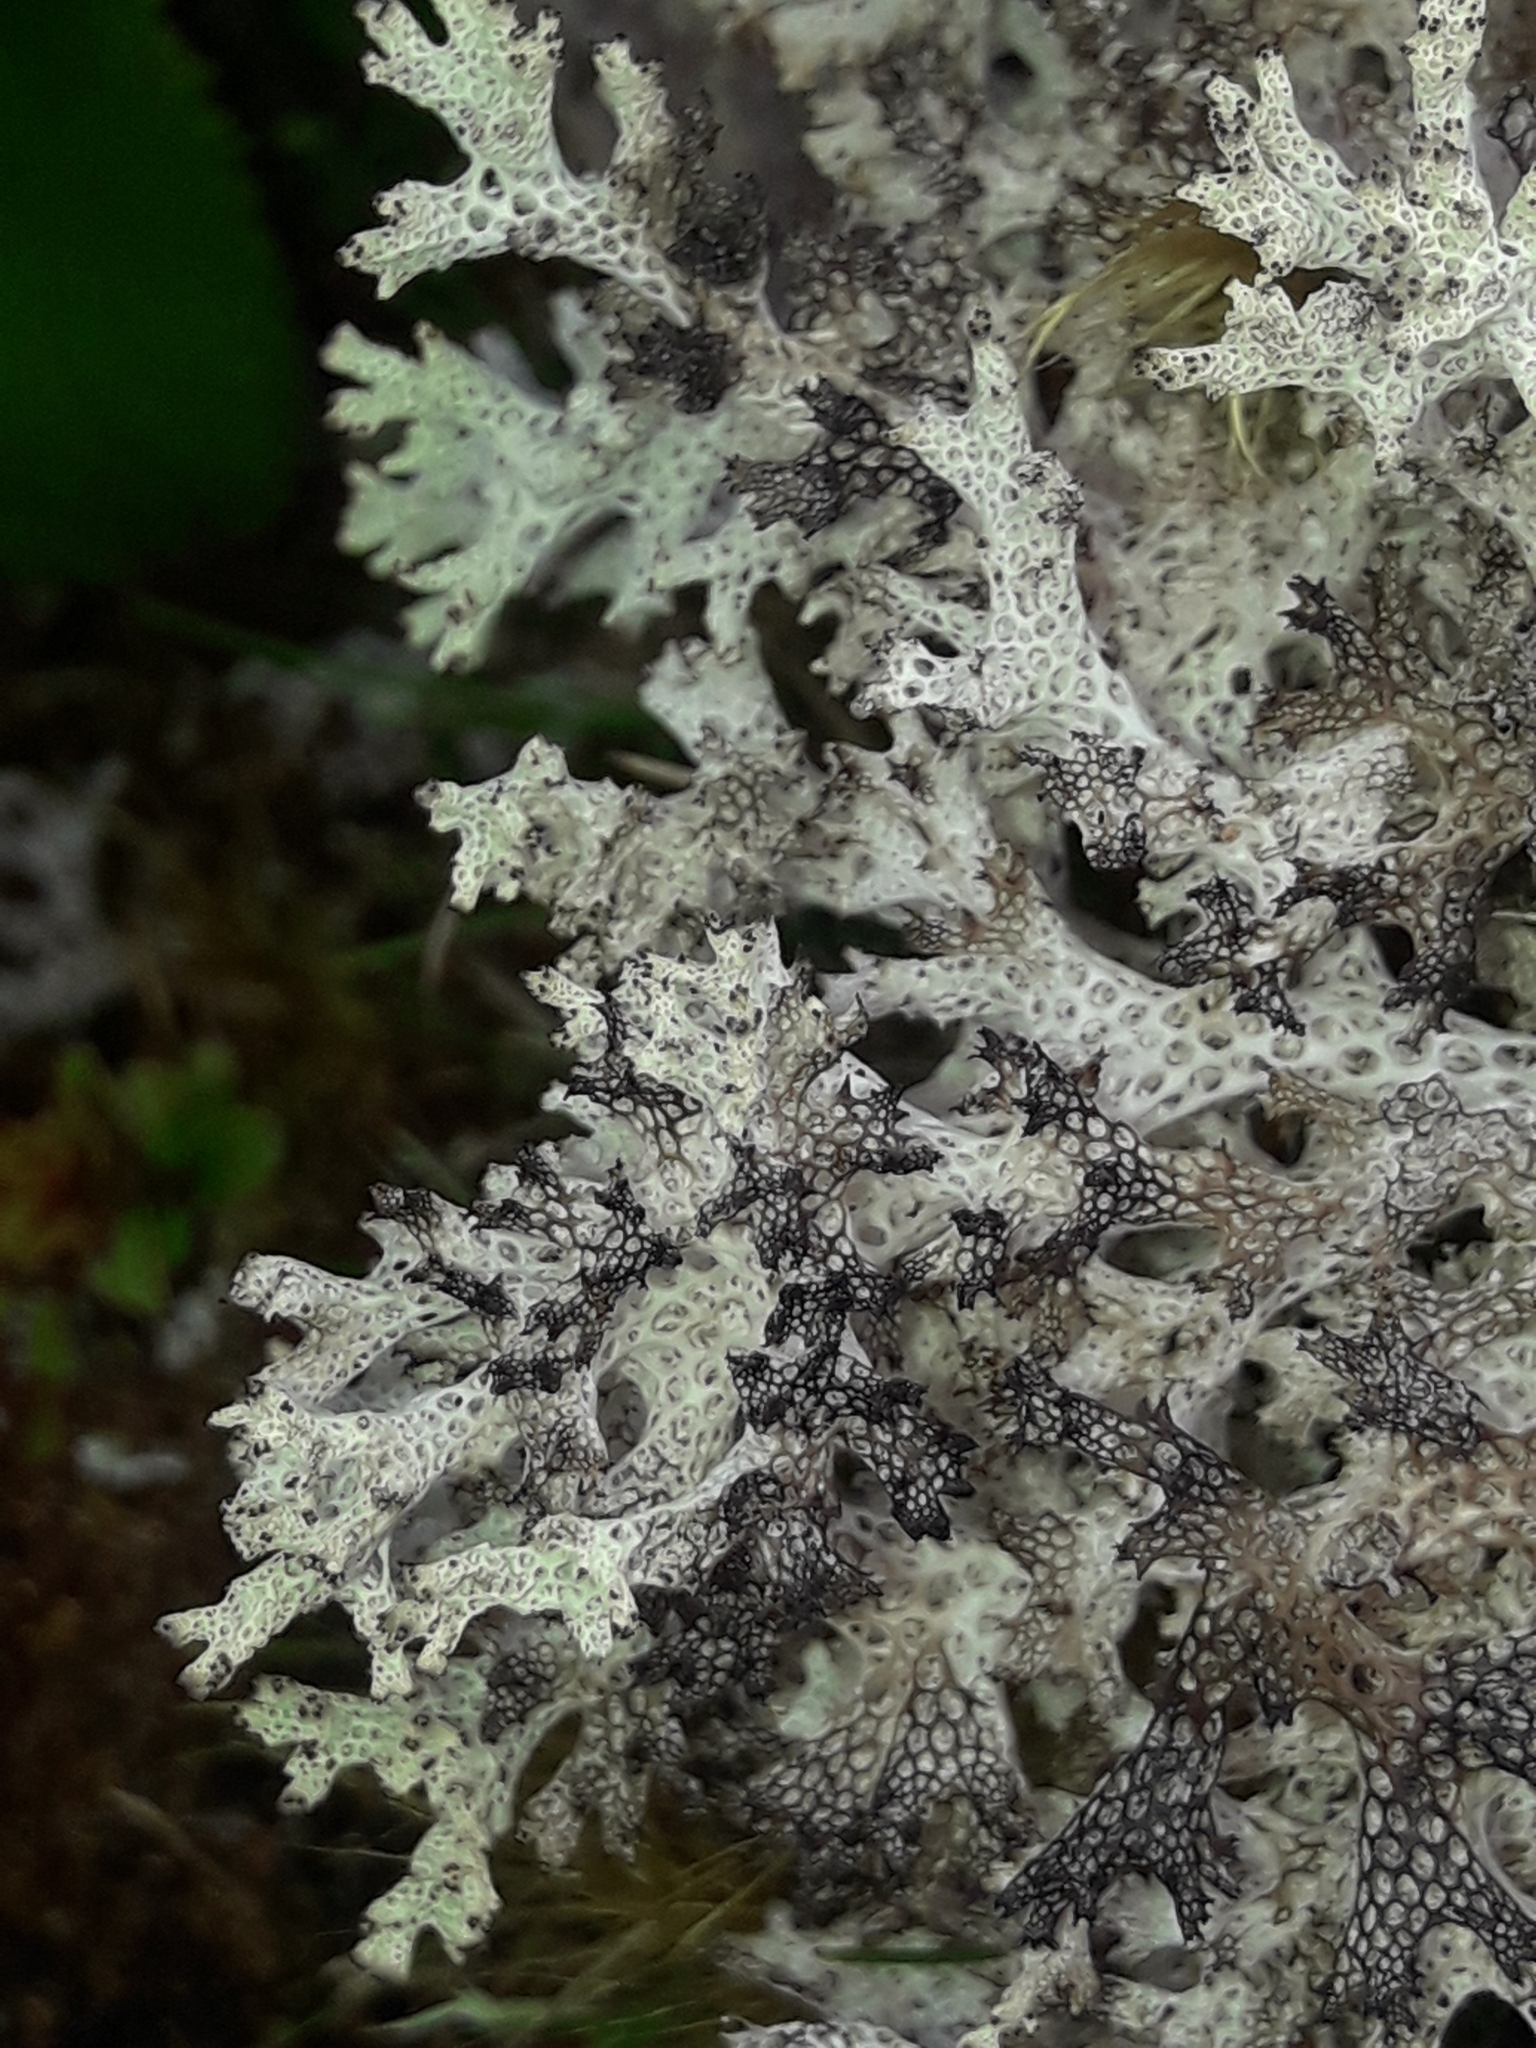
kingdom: Fungi
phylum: Ascomycota
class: Lecanoromycetes
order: Lecanorales
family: Cladoniaceae
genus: Pulchrocladia
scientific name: Pulchrocladia retipora
